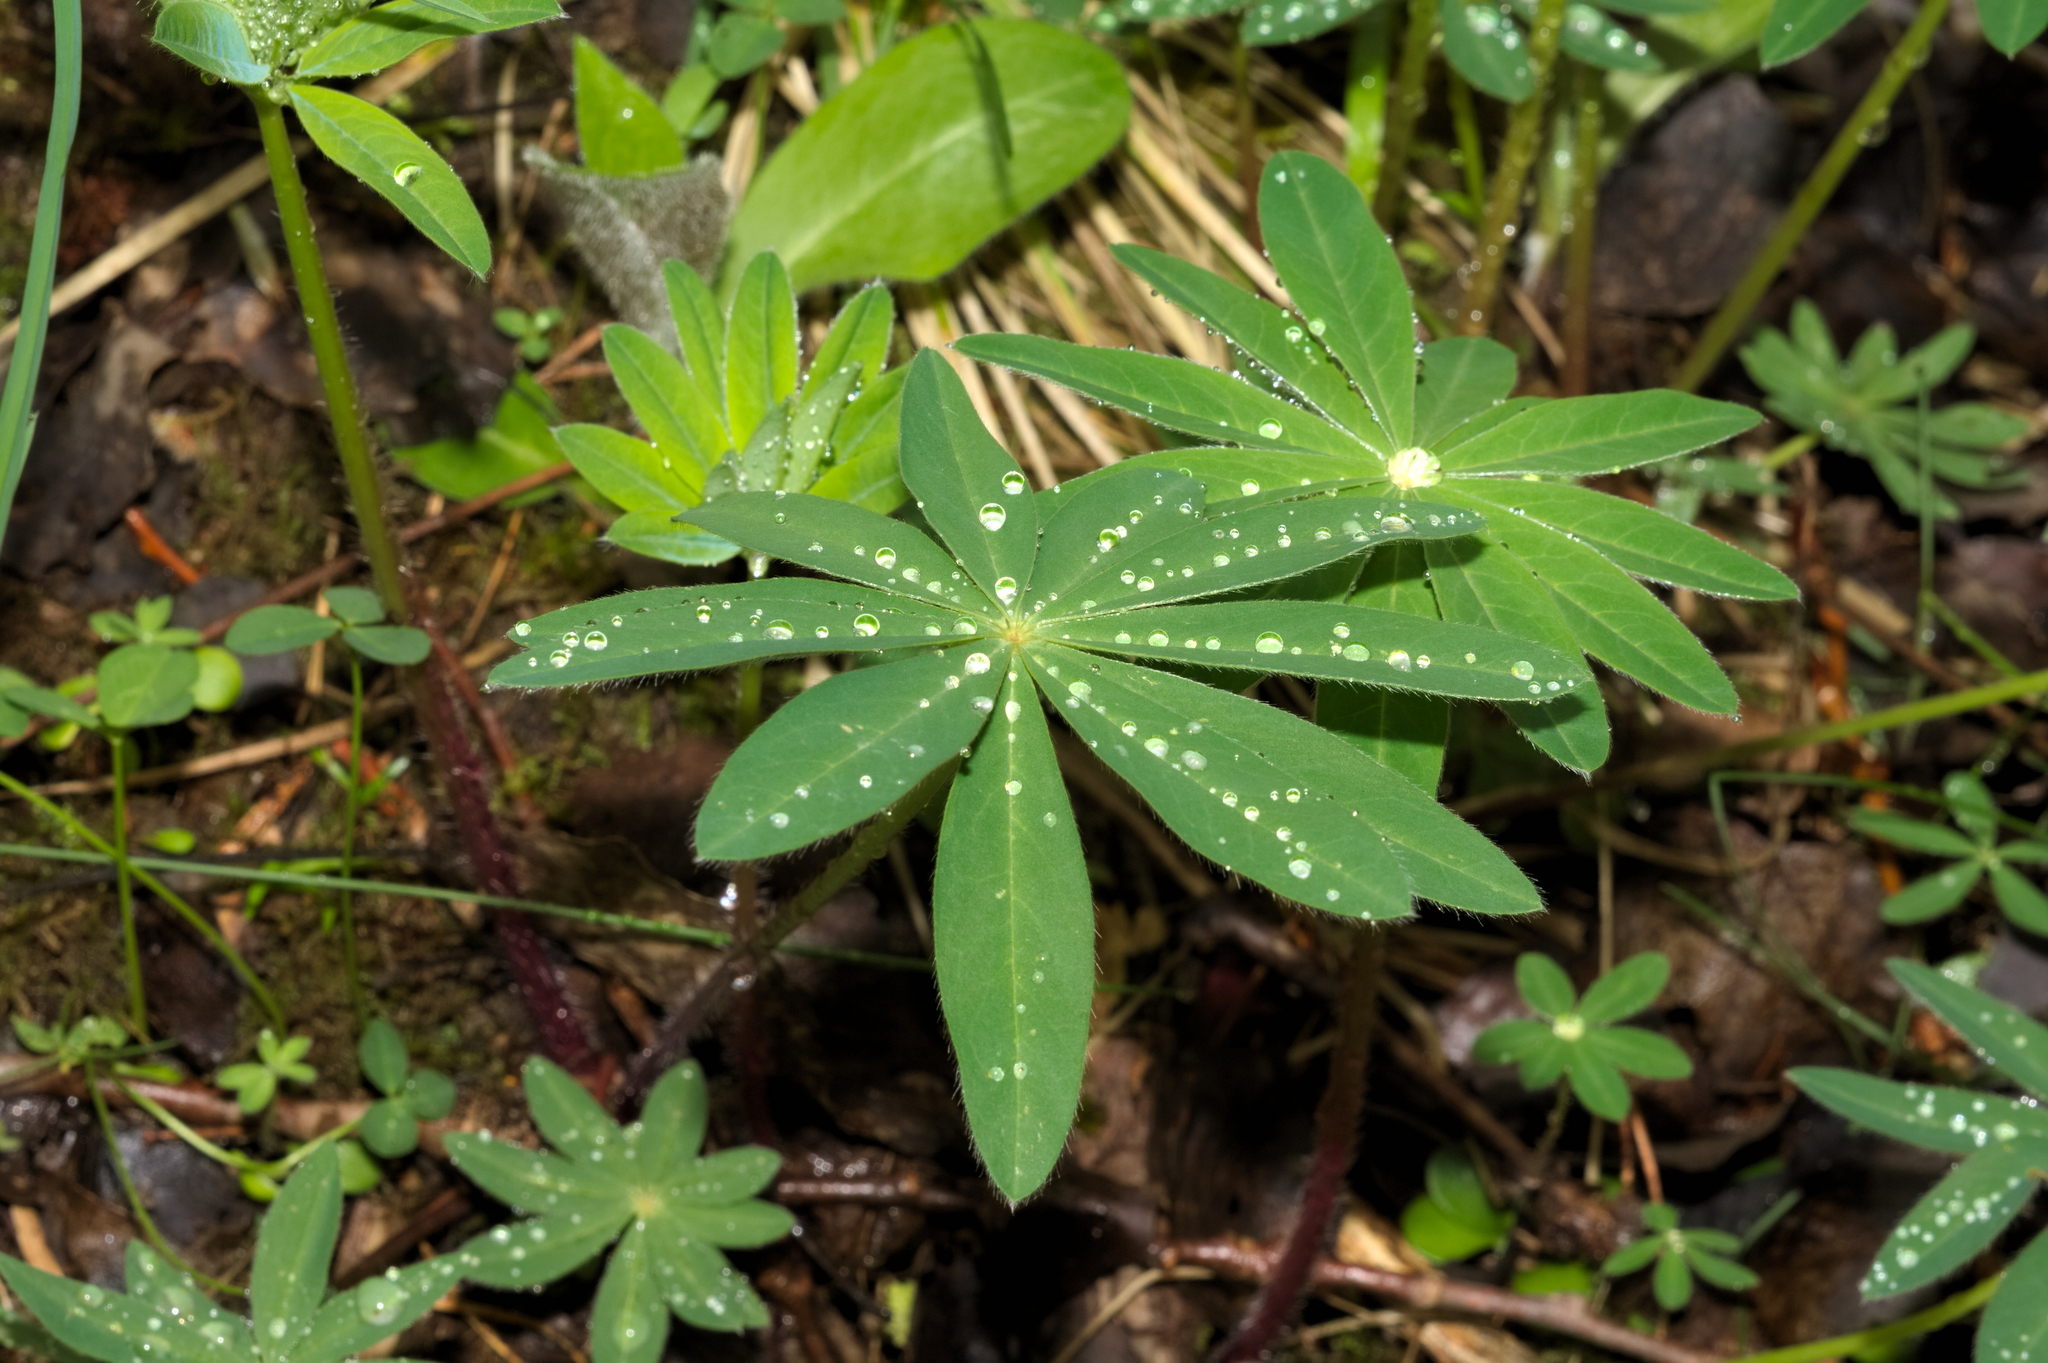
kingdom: Plantae
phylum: Tracheophyta
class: Magnoliopsida
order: Fabales
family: Fabaceae
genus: Lupinus
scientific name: Lupinus polyphyllus
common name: Garden lupin
